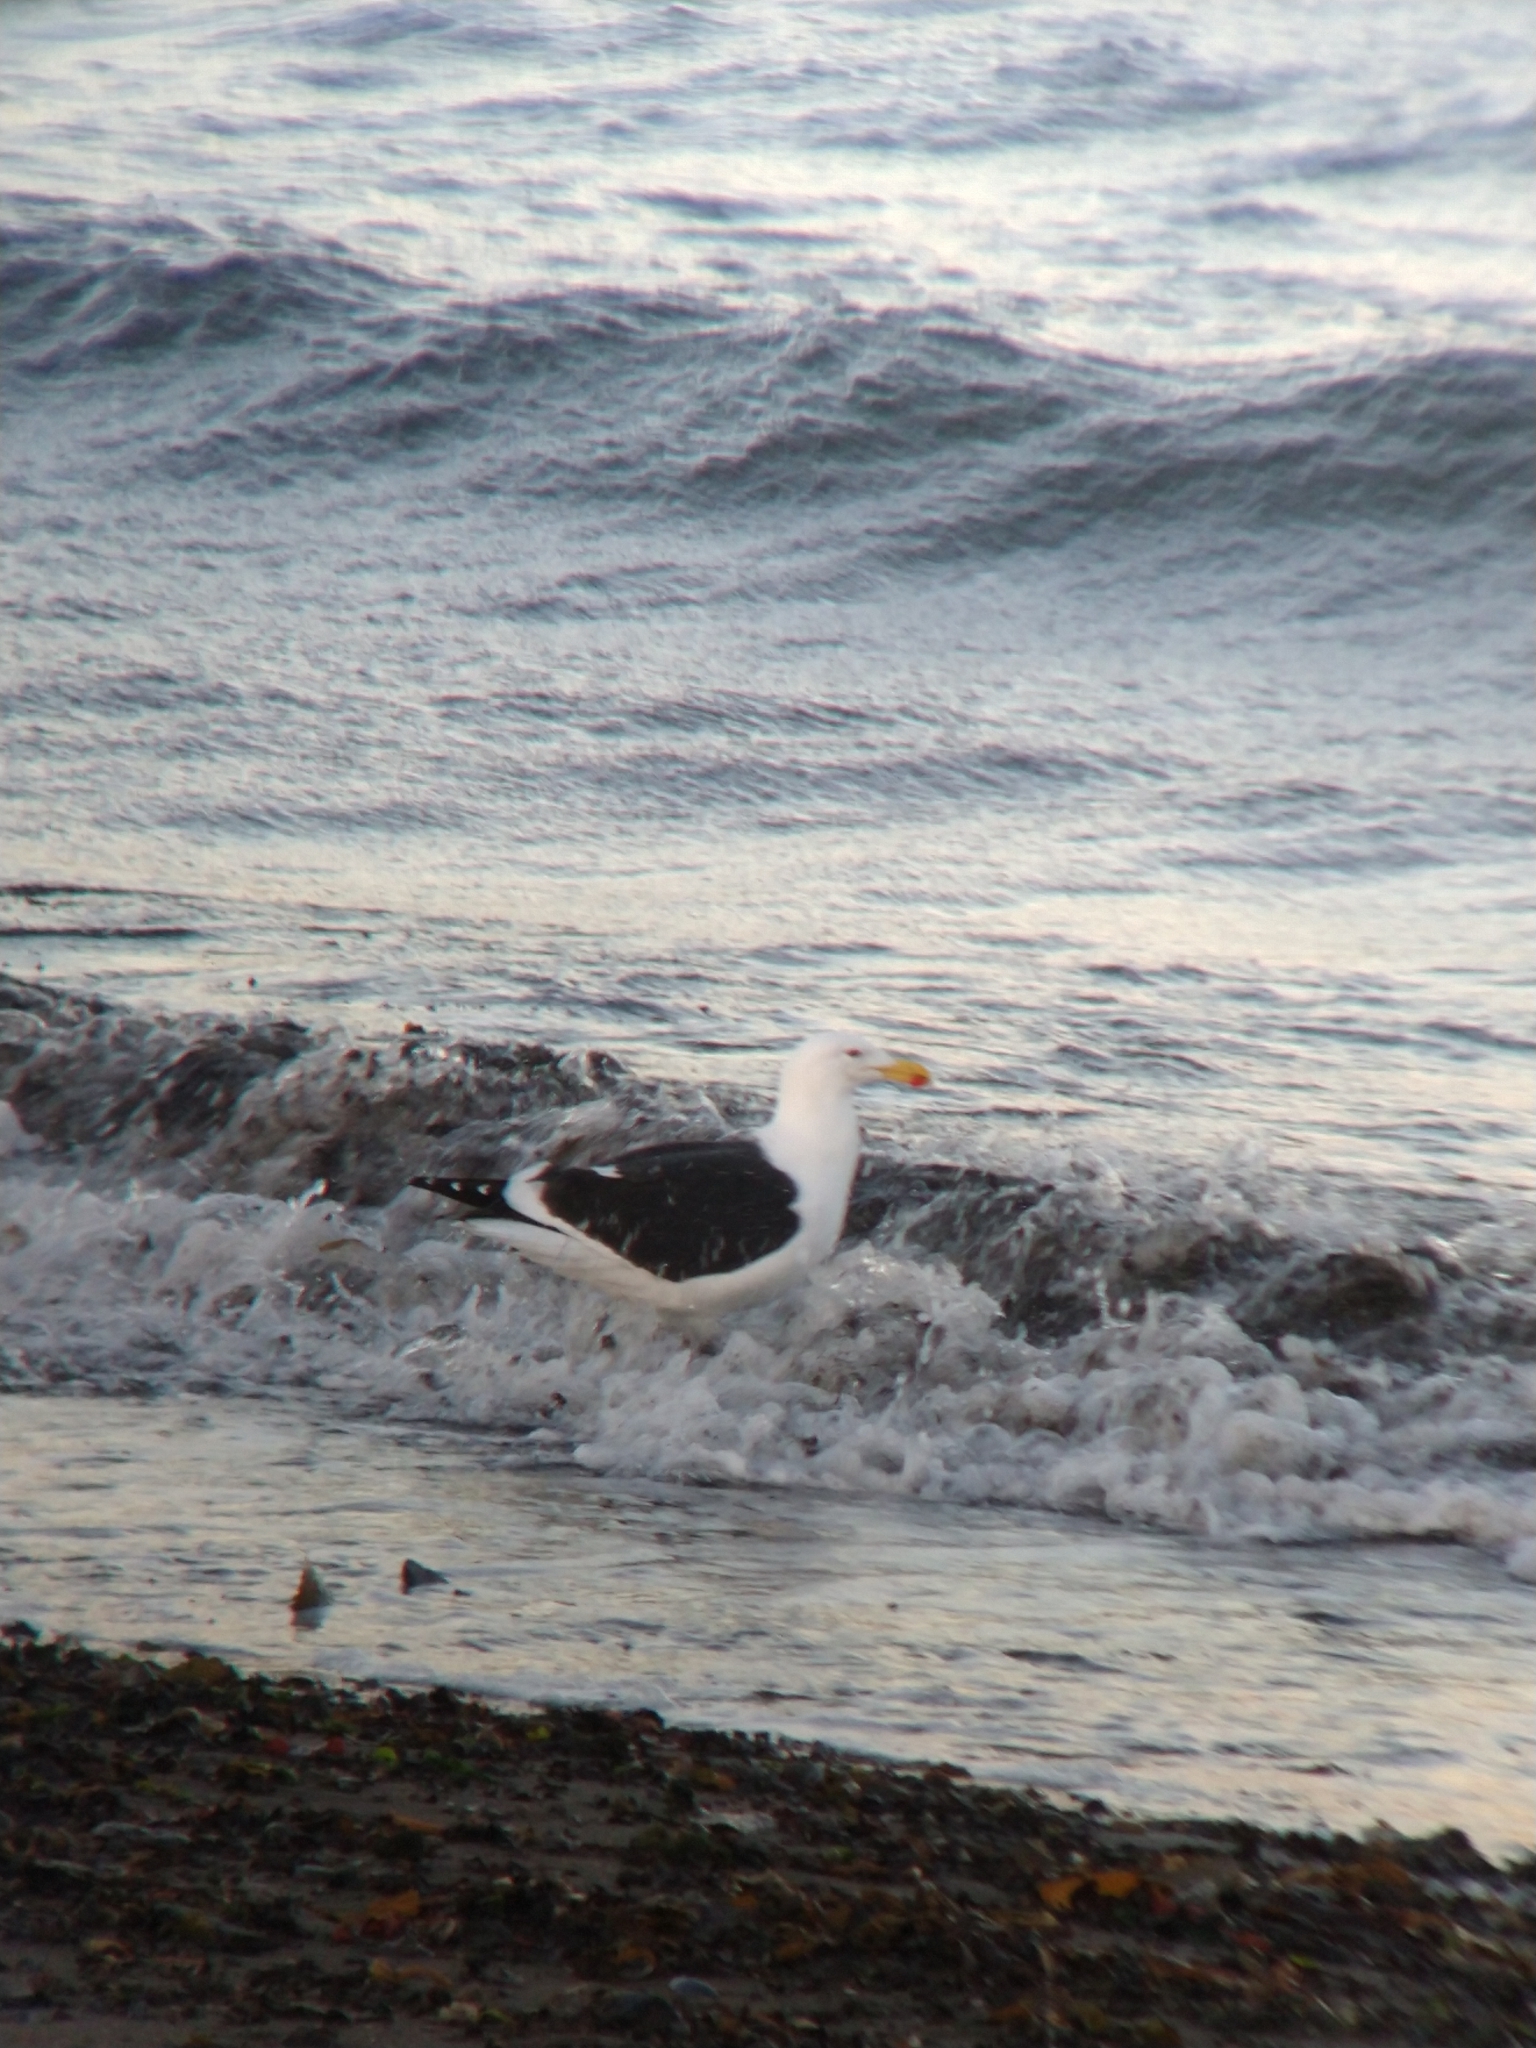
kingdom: Animalia
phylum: Chordata
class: Aves
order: Charadriiformes
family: Laridae
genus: Larus
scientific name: Larus dominicanus
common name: Kelp gull
